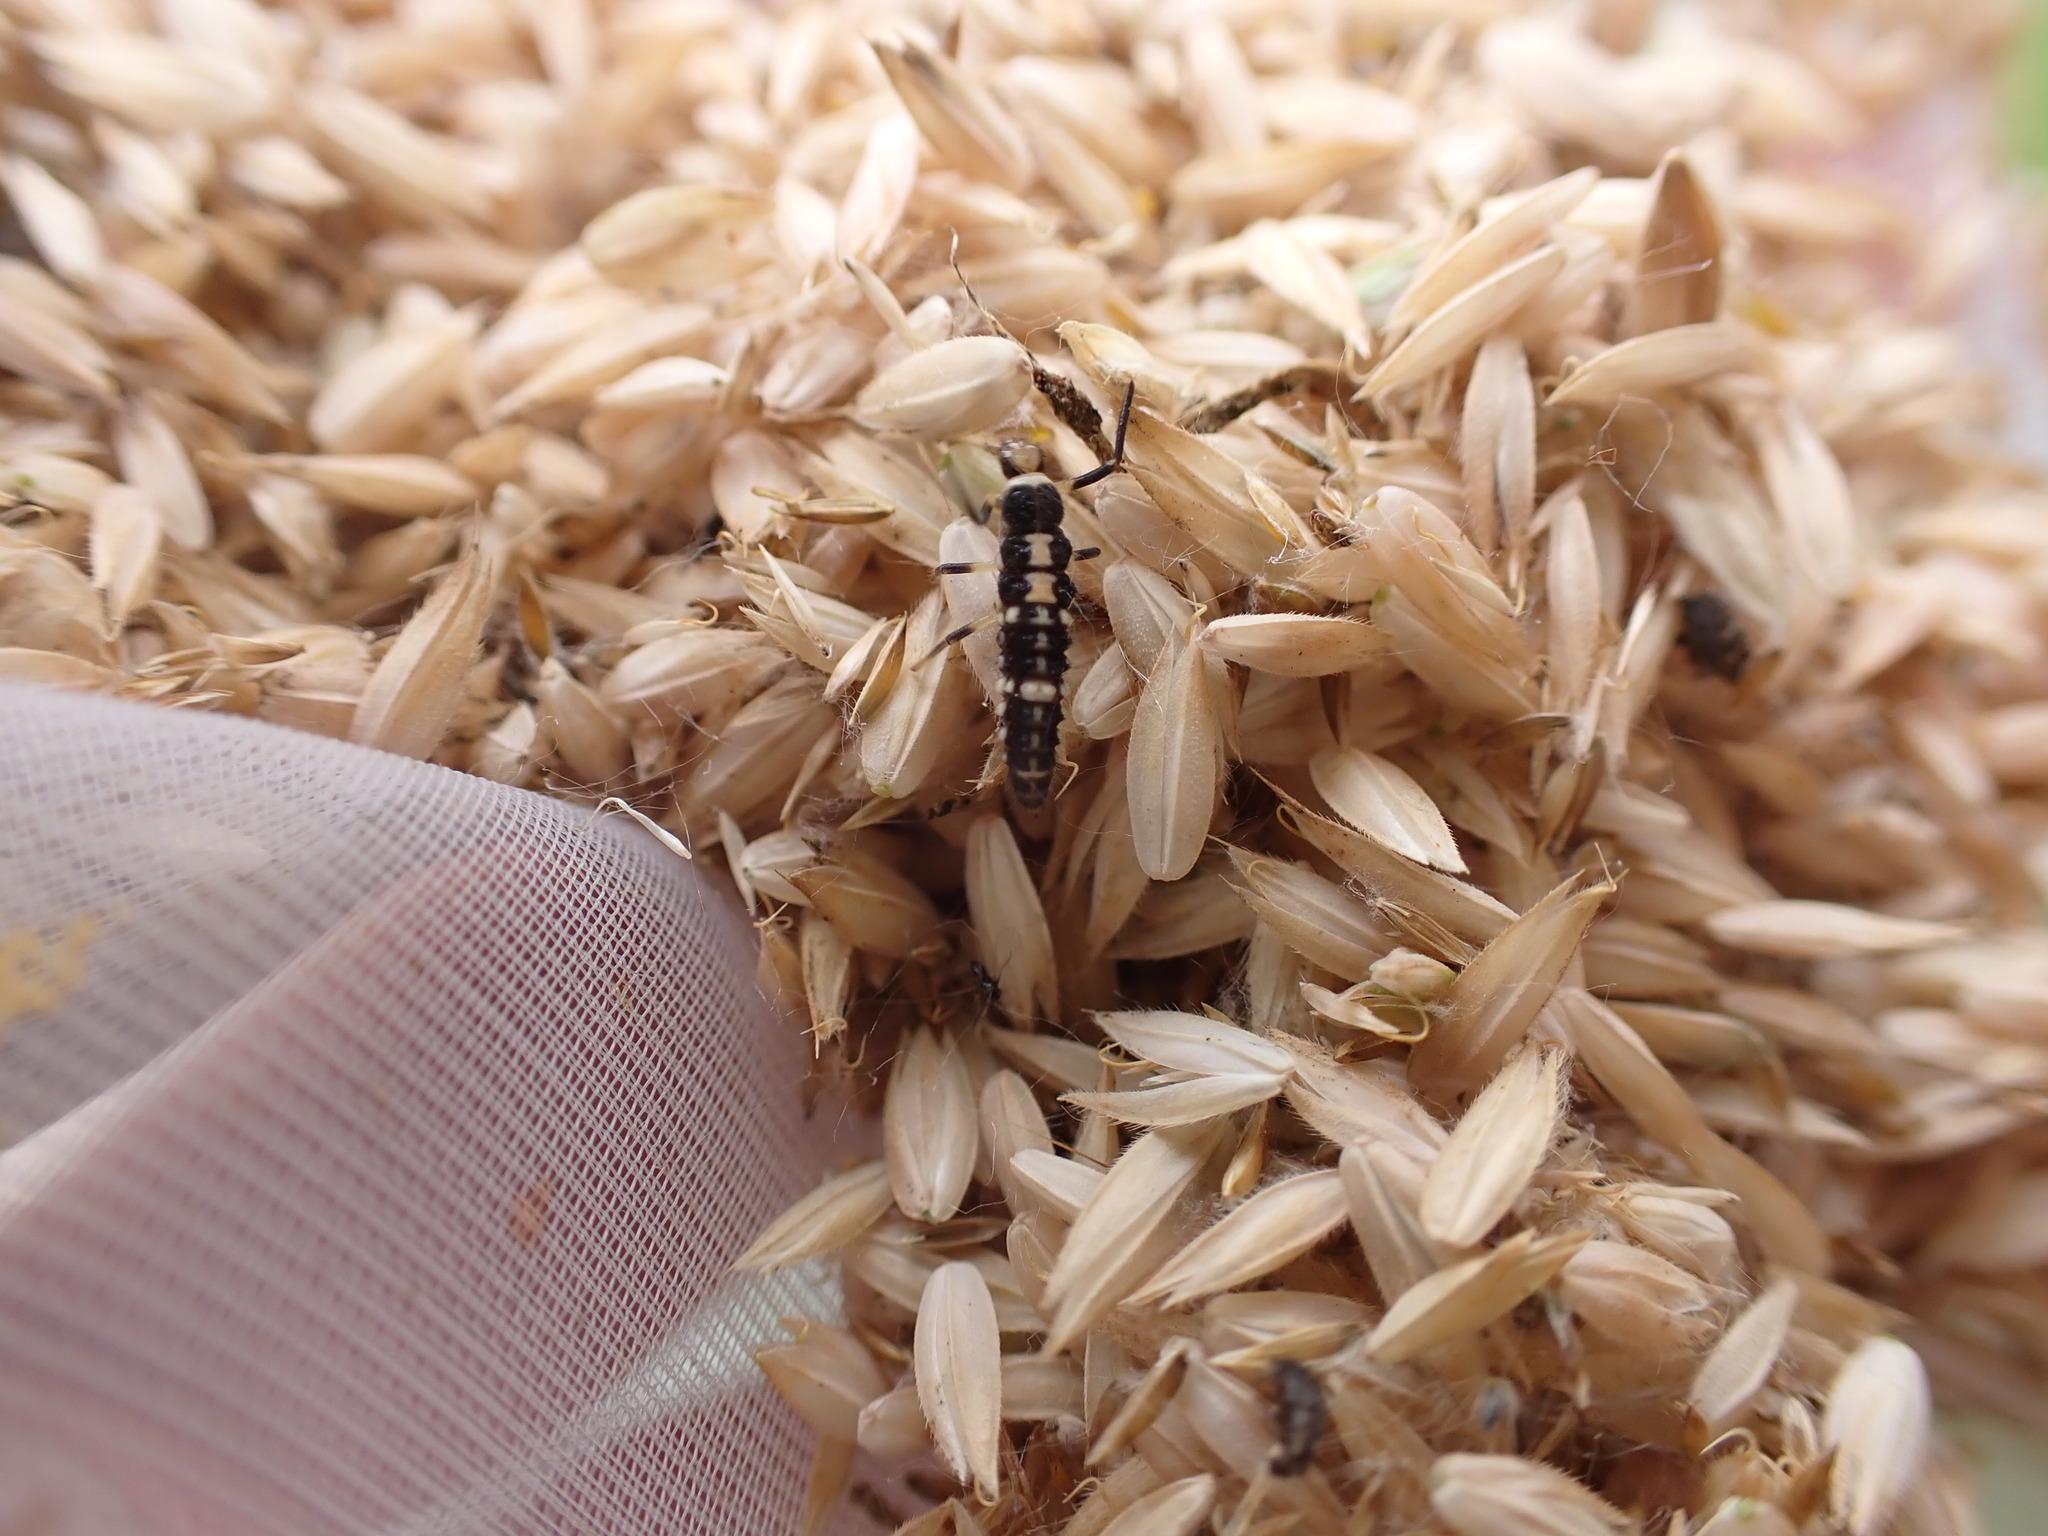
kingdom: Animalia
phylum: Arthropoda
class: Insecta
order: Coleoptera
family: Coccinellidae
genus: Propylaea
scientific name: Propylaea quatuordecimpunctata
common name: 14-spotted ladybird beetle
